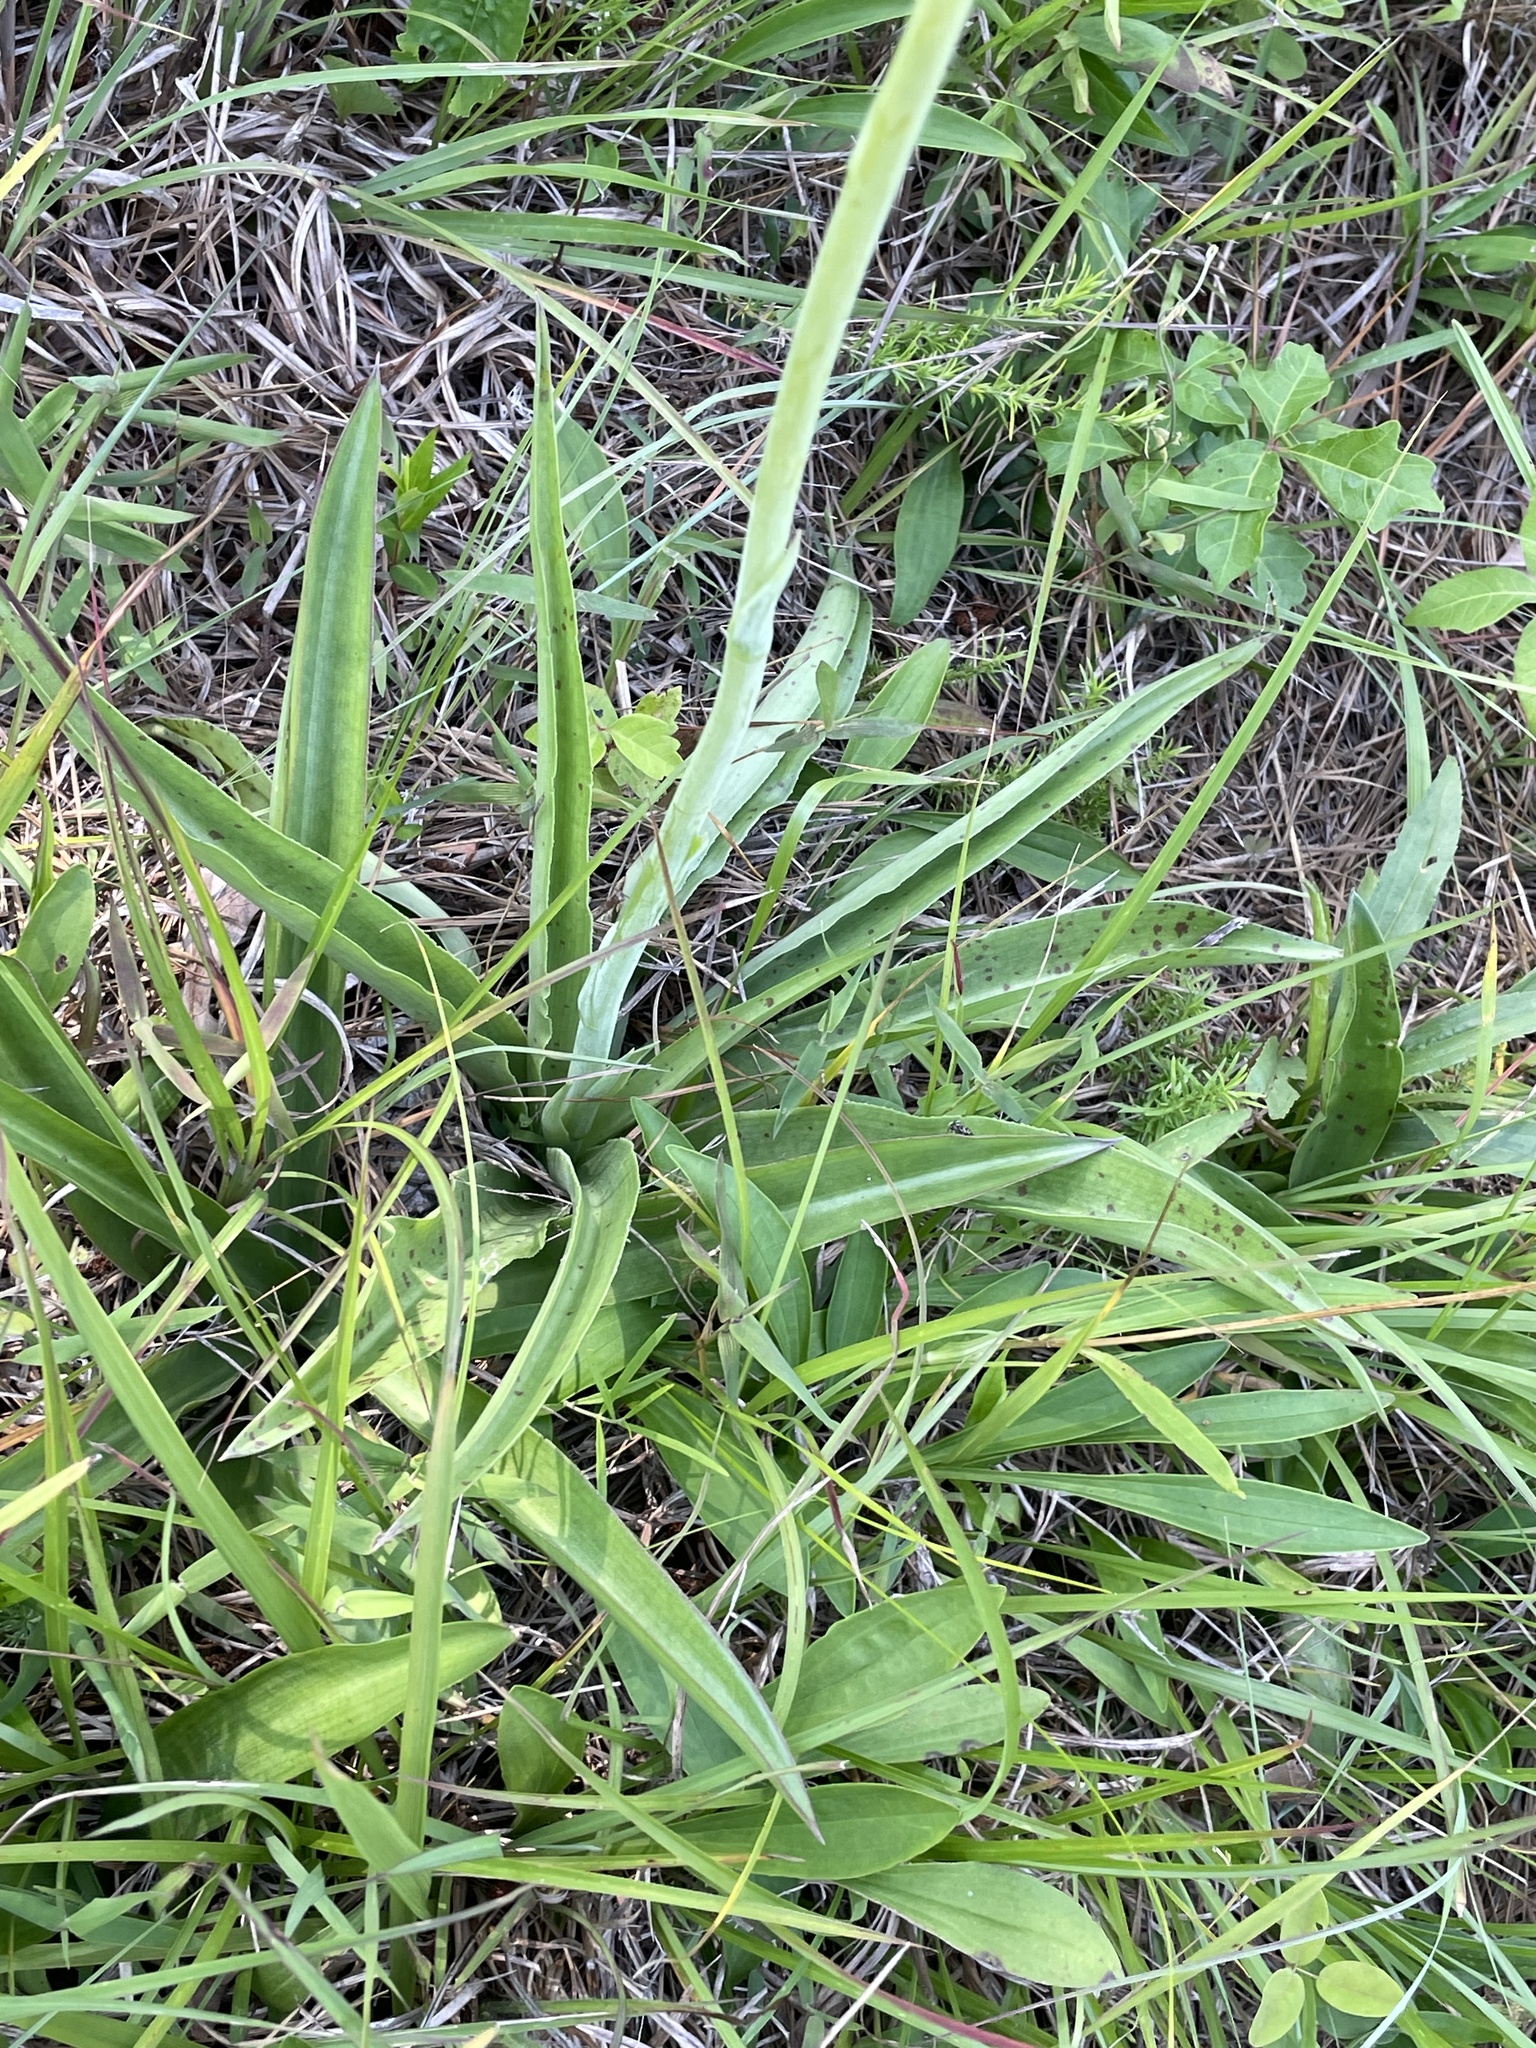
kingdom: Plantae
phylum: Tracheophyta
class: Liliopsida
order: Asparagales
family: Asparagaceae
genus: Agave
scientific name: Agave virginica
